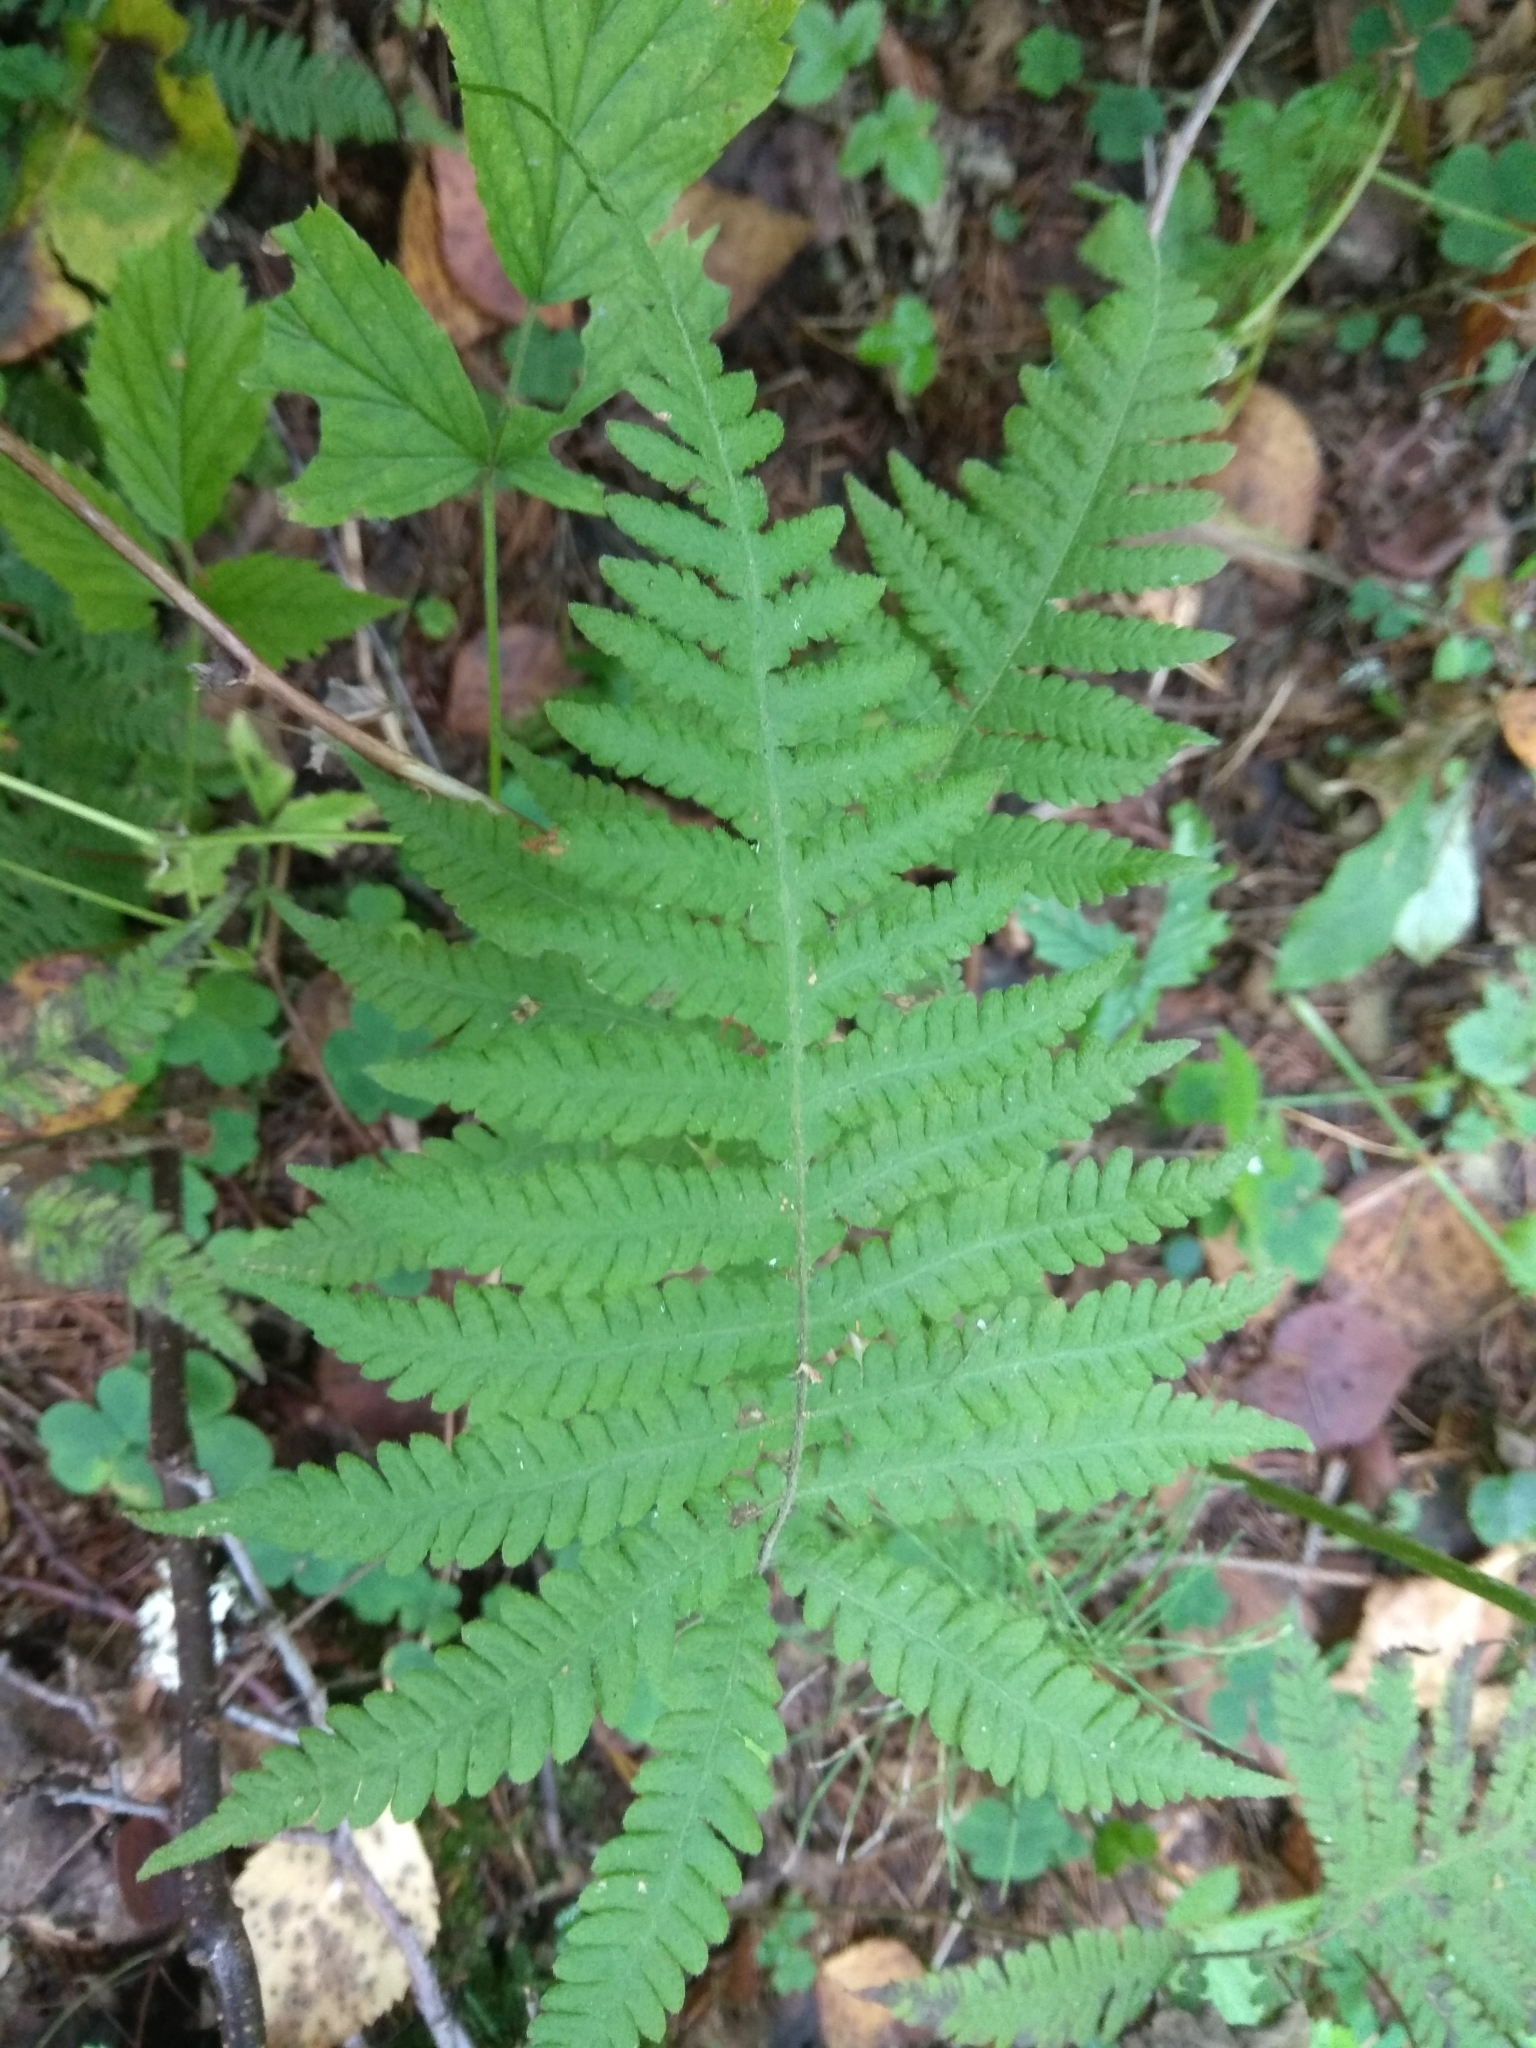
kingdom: Plantae
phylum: Tracheophyta
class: Polypodiopsida
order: Polypodiales
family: Thelypteridaceae
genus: Phegopteris
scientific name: Phegopteris connectilis
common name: Beech fern
